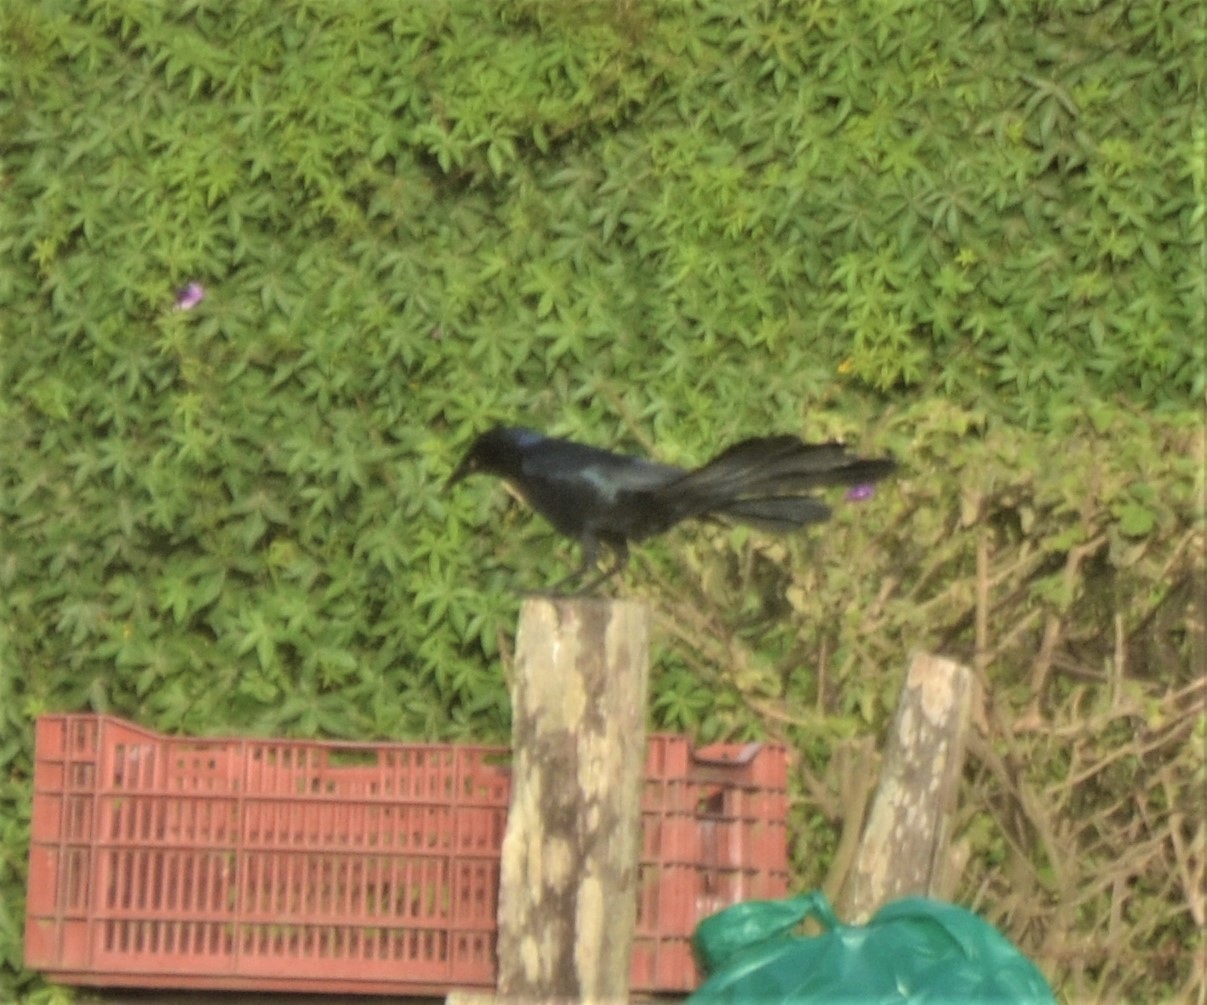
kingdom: Animalia
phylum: Chordata
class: Aves
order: Passeriformes
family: Icteridae
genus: Quiscalus
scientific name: Quiscalus mexicanus
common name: Great-tailed grackle
